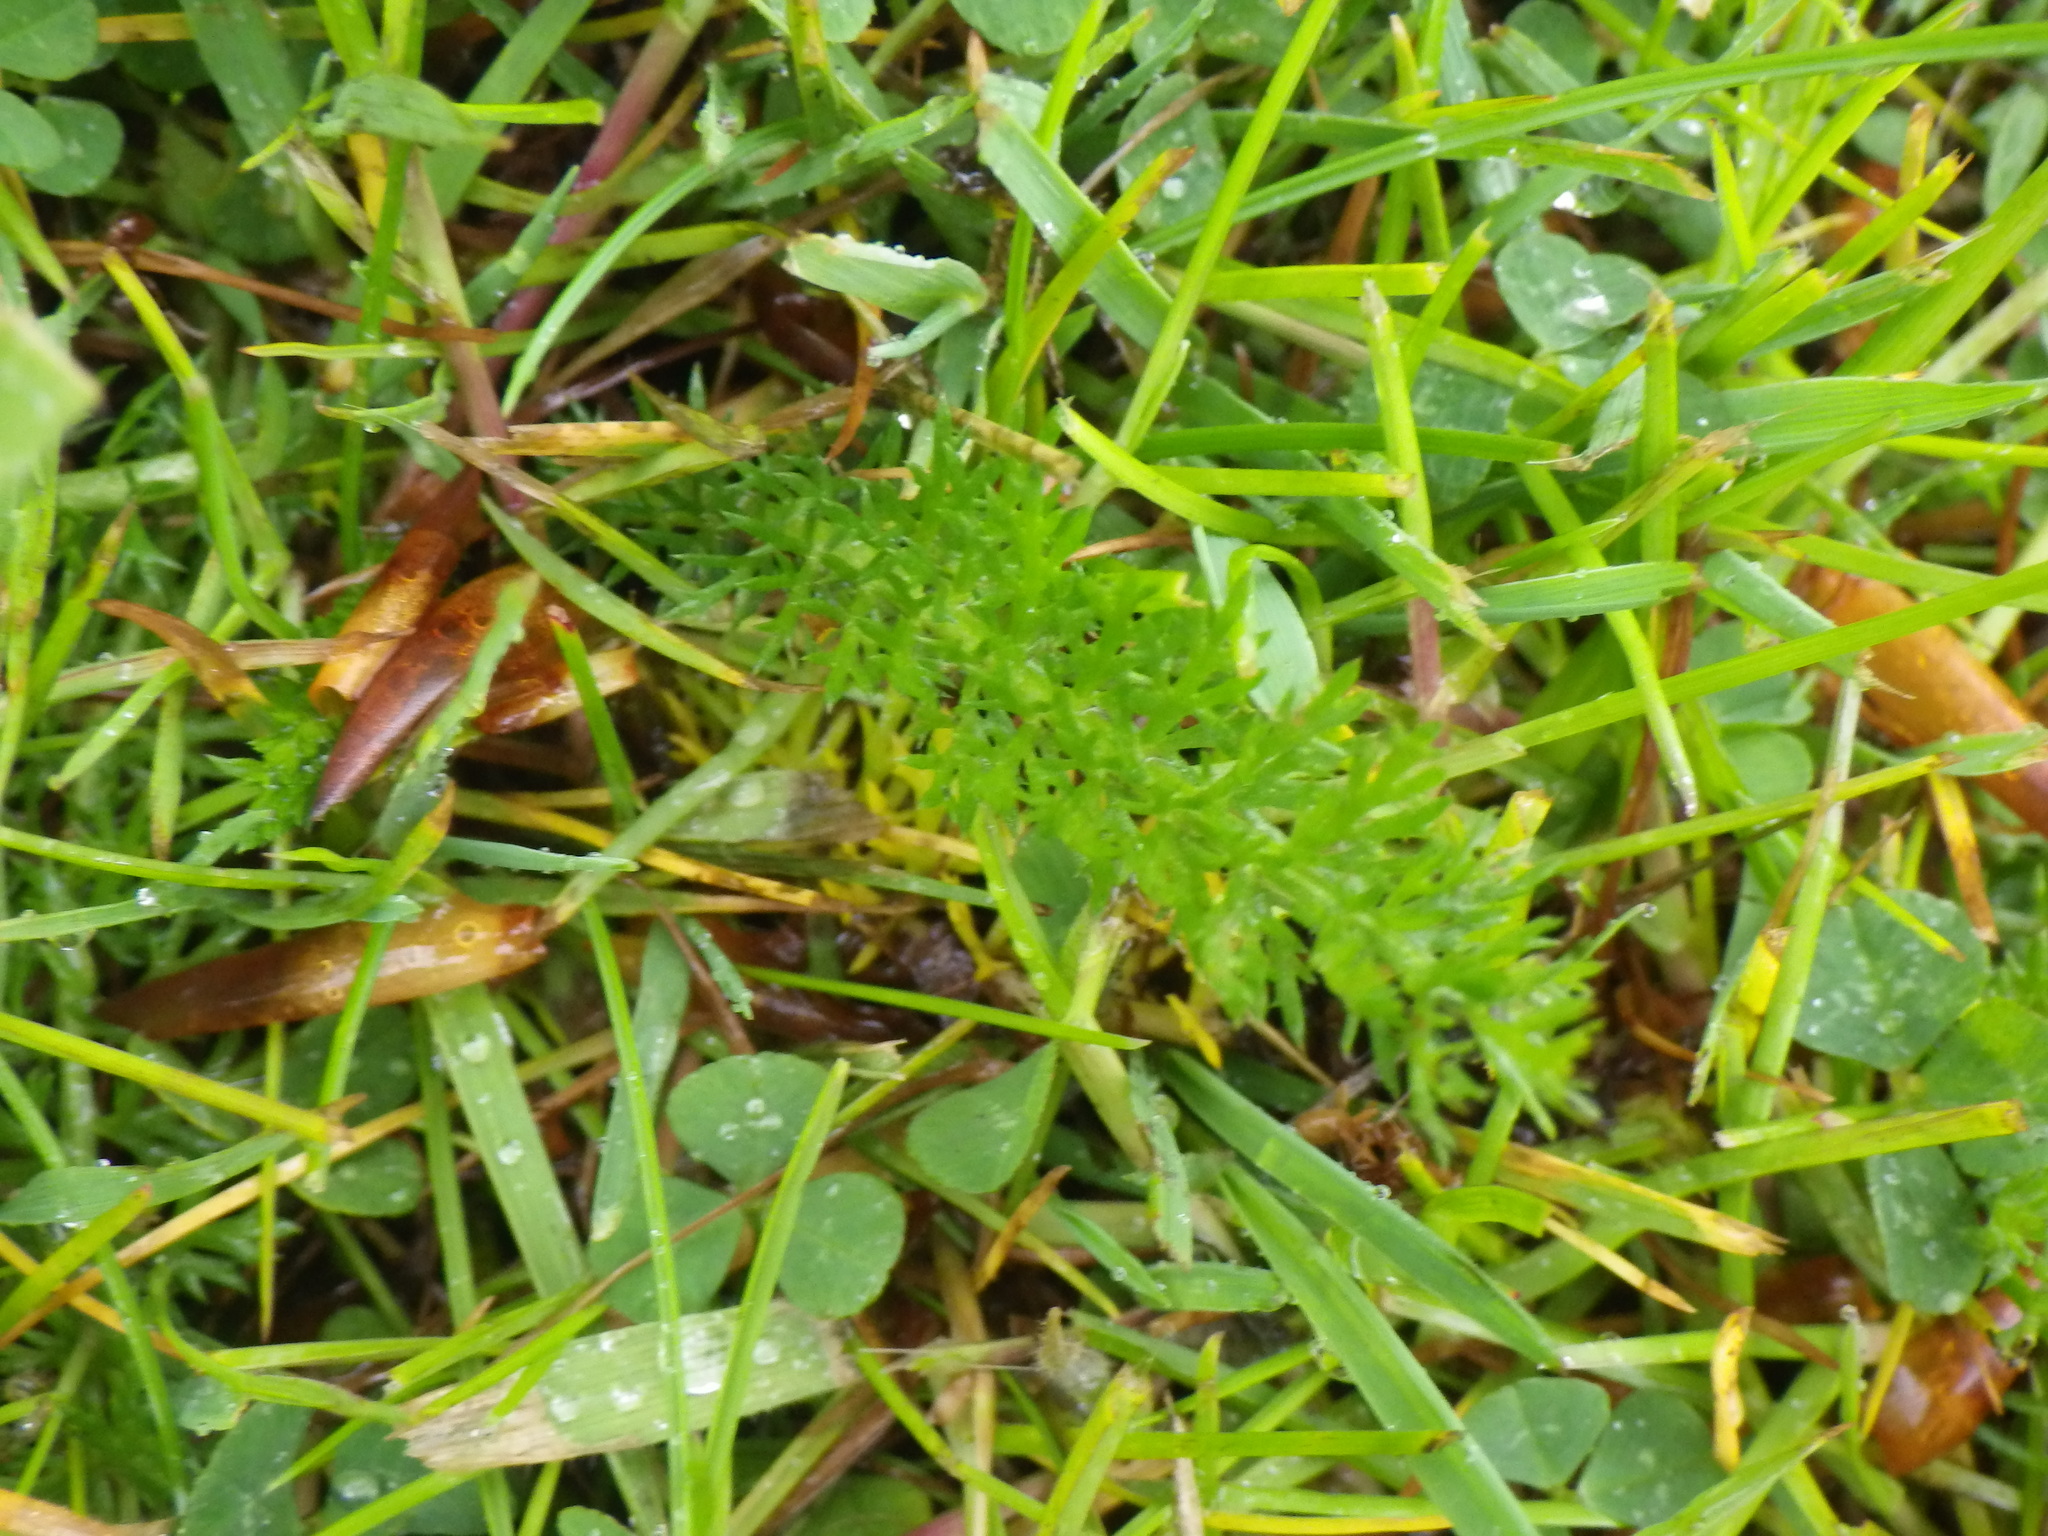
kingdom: Plantae
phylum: Tracheophyta
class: Magnoliopsida
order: Asterales
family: Asteraceae
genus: Achillea
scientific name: Achillea millefolium
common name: Yarrow
